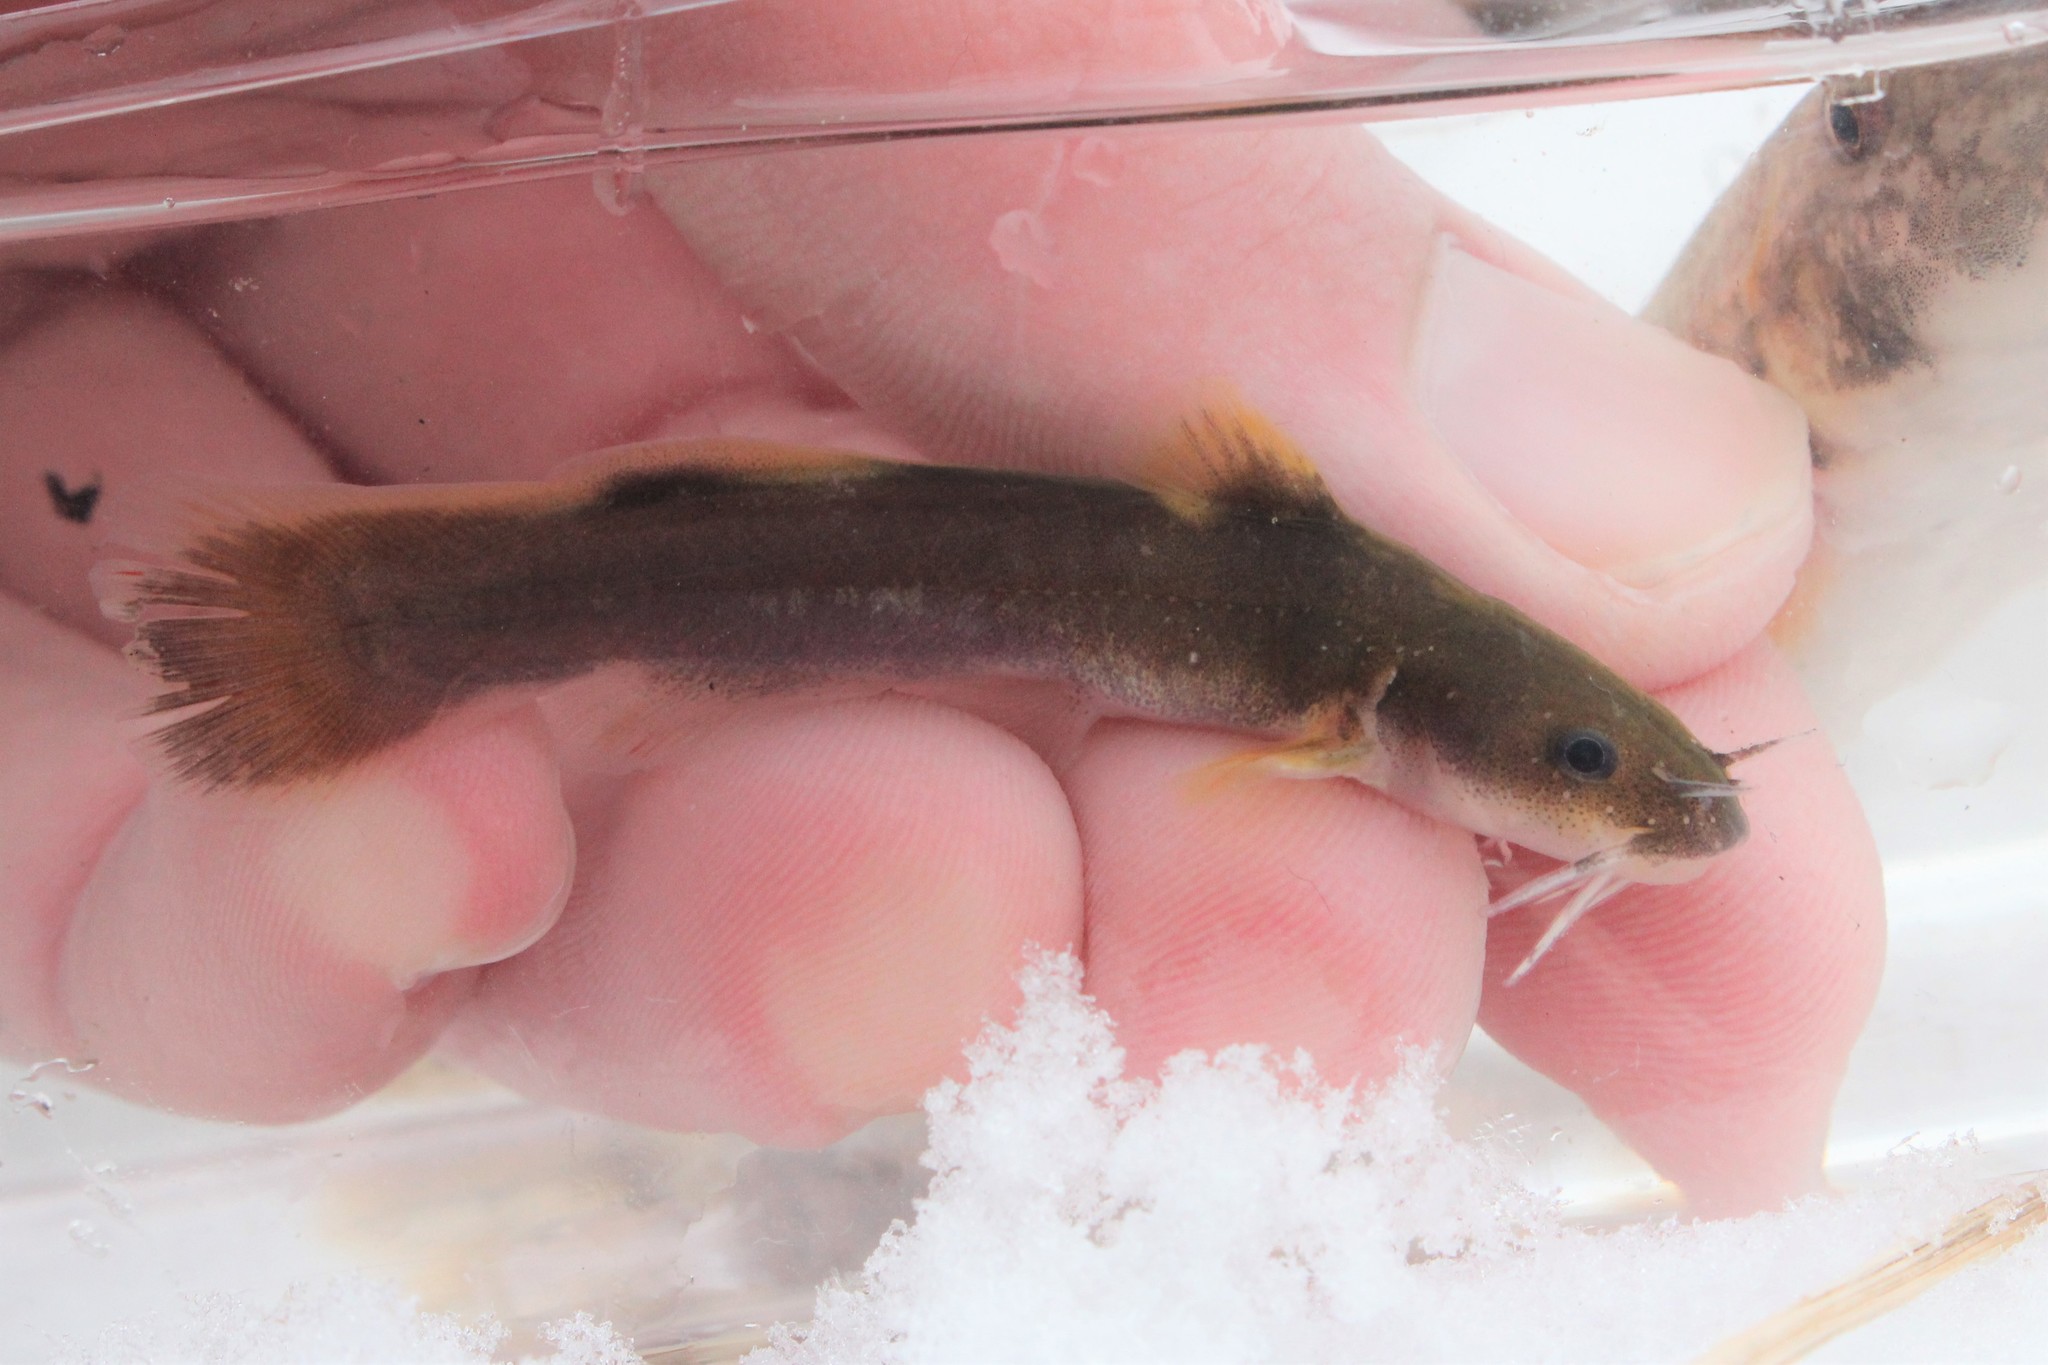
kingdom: Animalia
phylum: Chordata
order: Siluriformes
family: Ictaluridae
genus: Noturus
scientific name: Noturus flavus
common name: Stonecat
